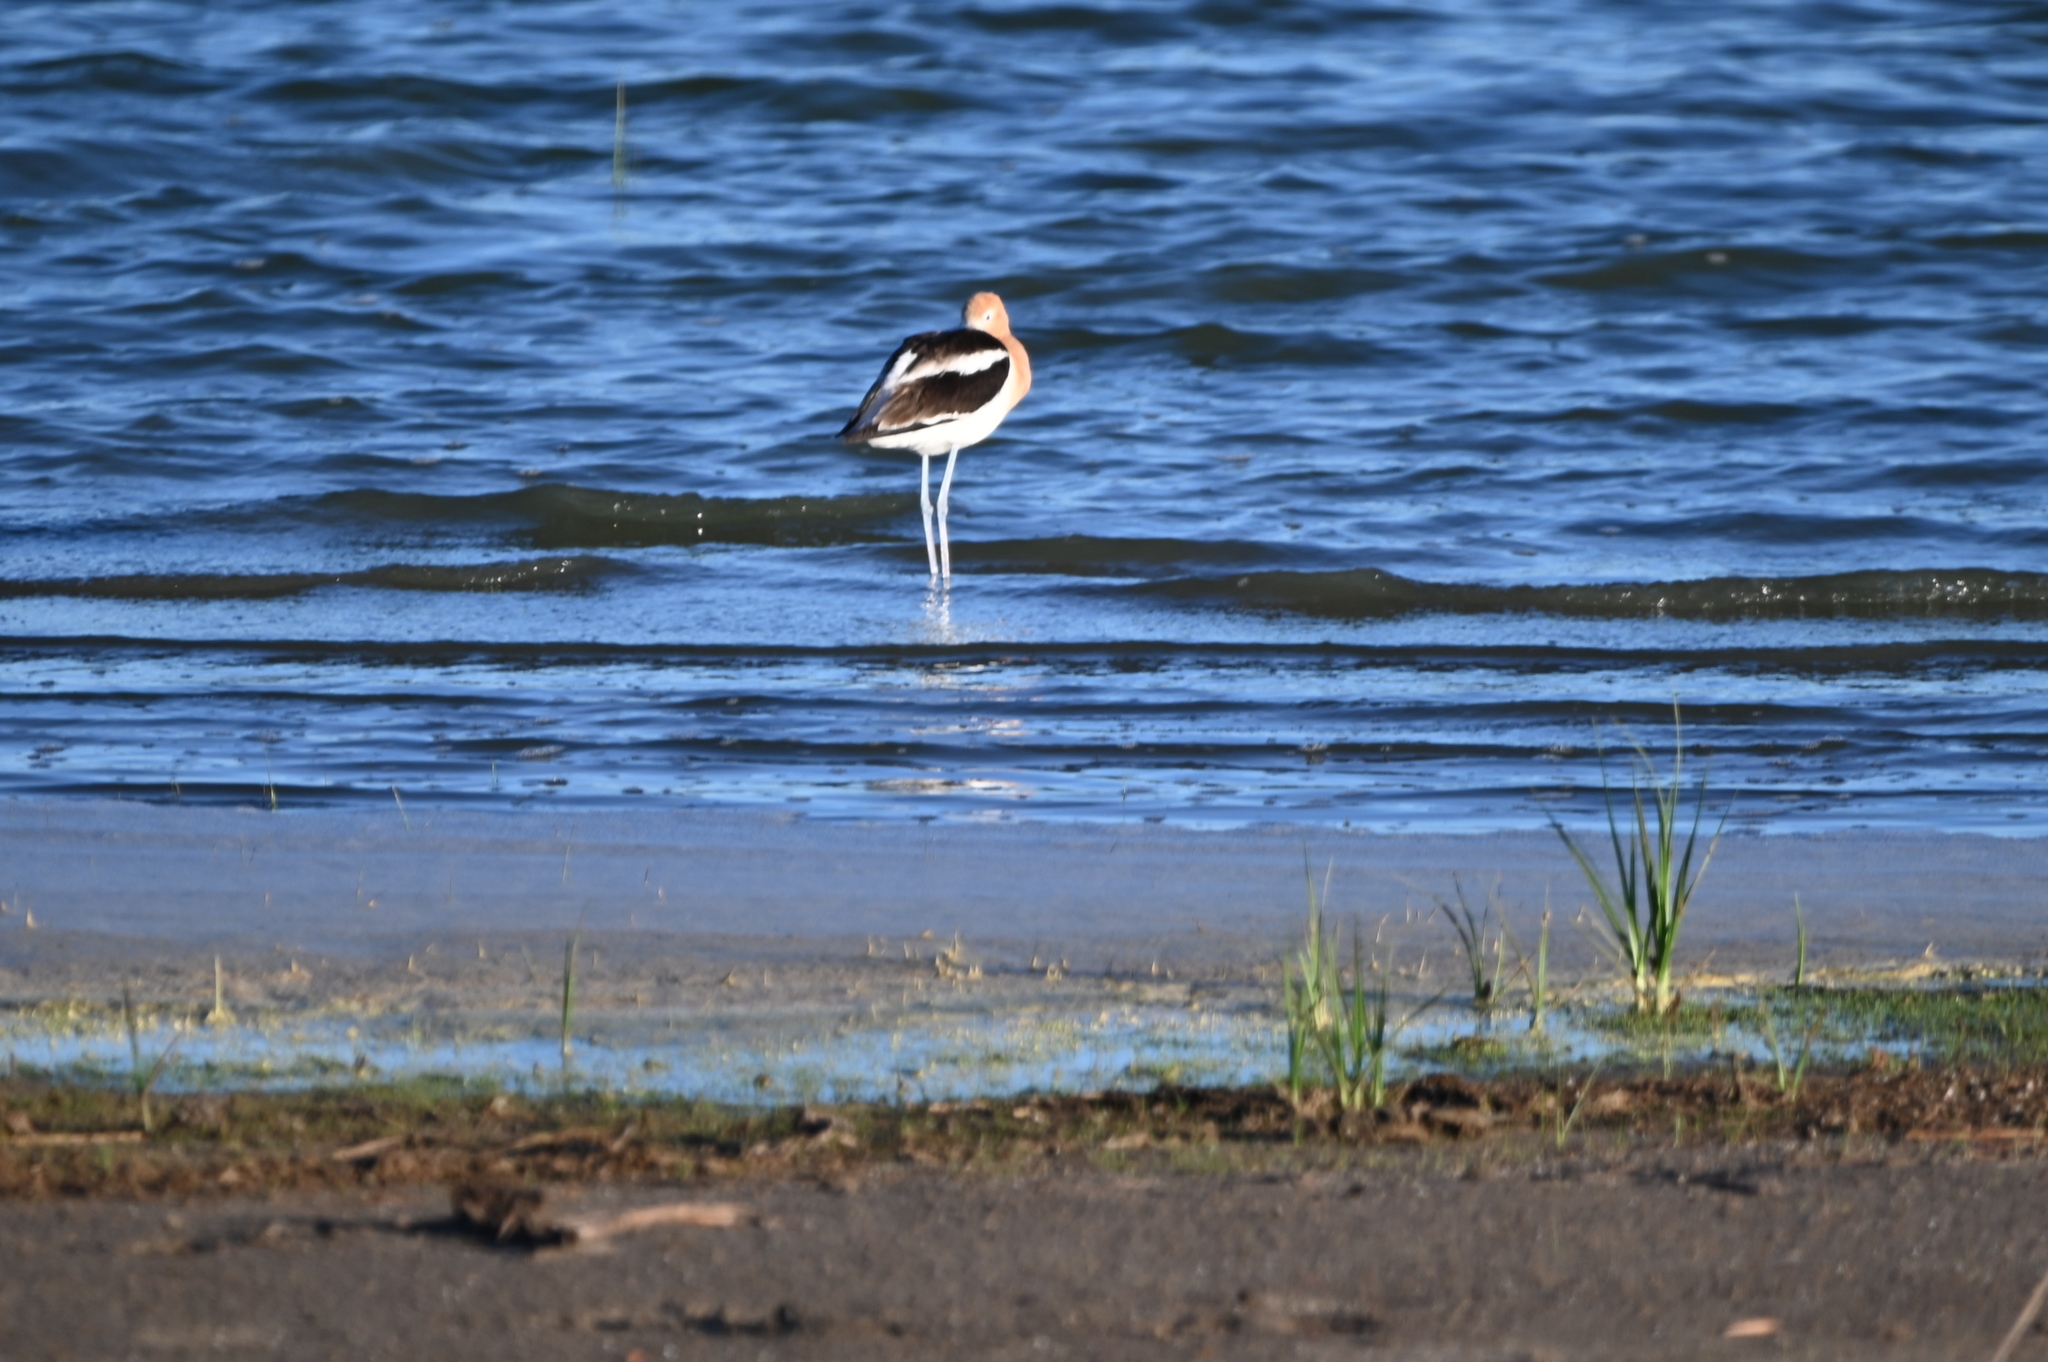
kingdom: Animalia
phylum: Chordata
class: Aves
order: Charadriiformes
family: Recurvirostridae
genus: Recurvirostra
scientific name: Recurvirostra americana
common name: American avocet
